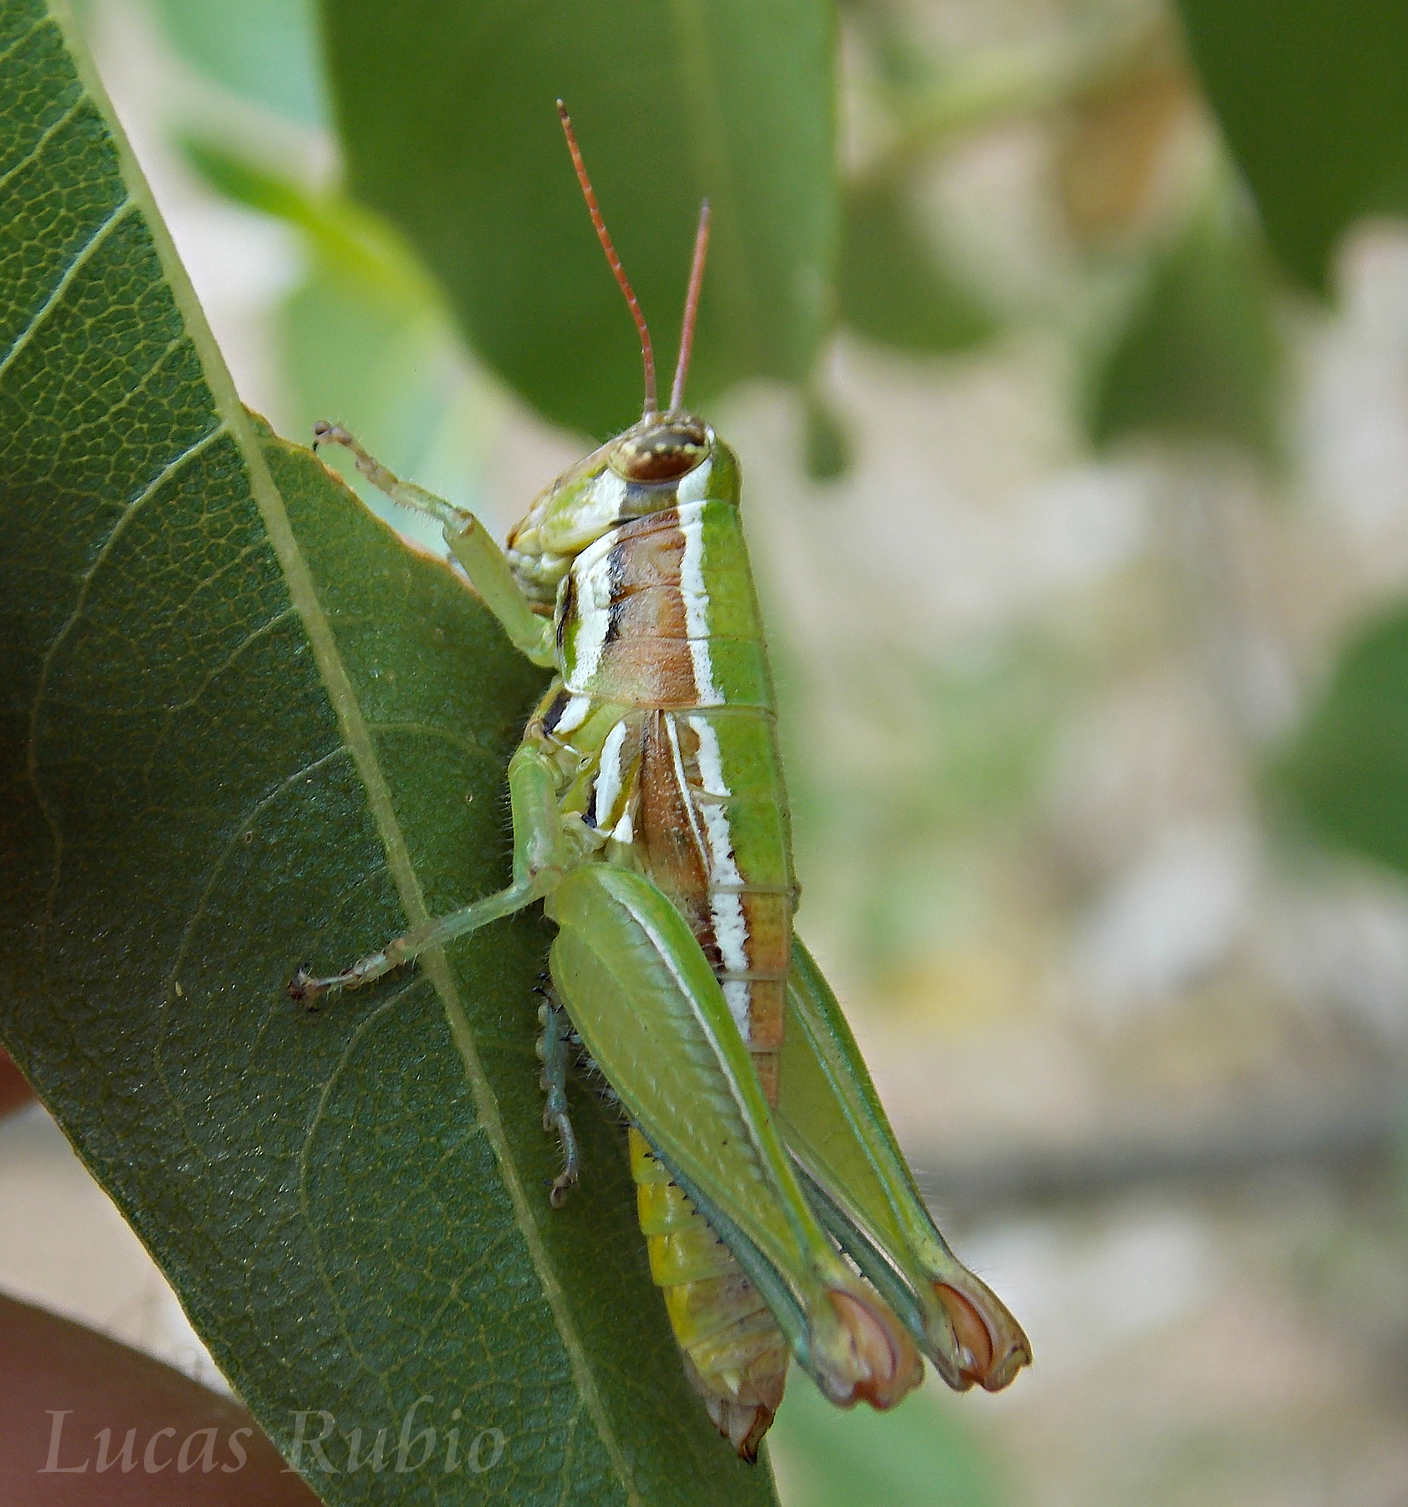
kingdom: Animalia
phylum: Arthropoda
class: Insecta
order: Orthoptera
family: Acrididae
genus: Neopedies
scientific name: Neopedies brunneri
